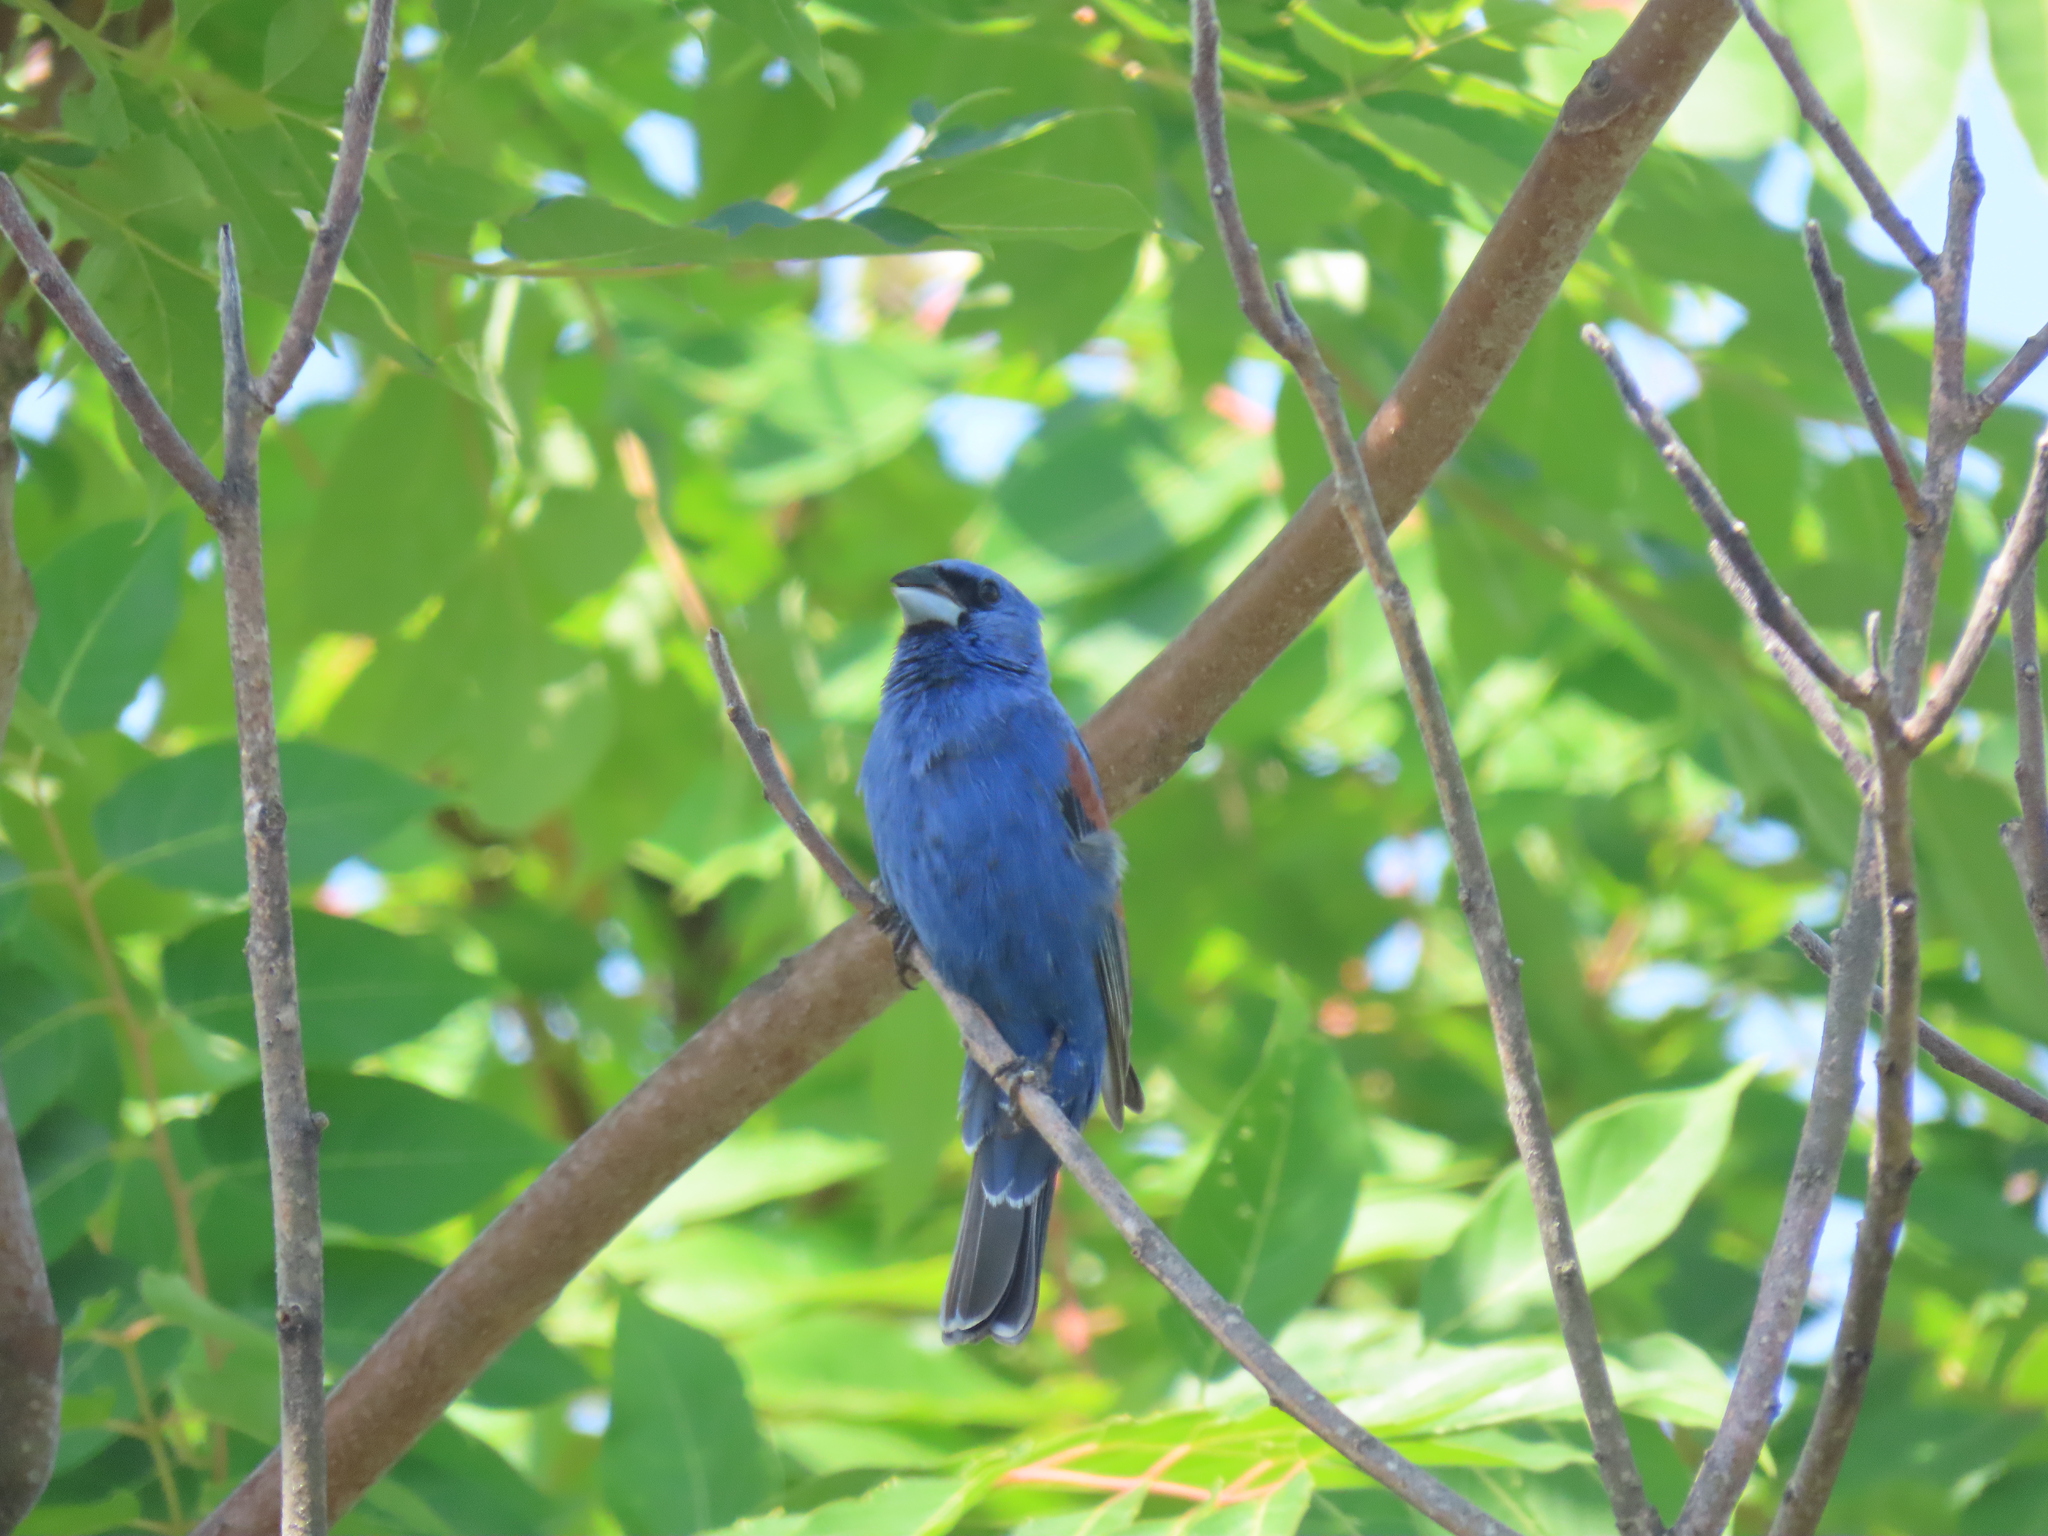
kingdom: Animalia
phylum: Chordata
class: Aves
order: Passeriformes
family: Cardinalidae
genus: Passerina
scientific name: Passerina caerulea
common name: Blue grosbeak
